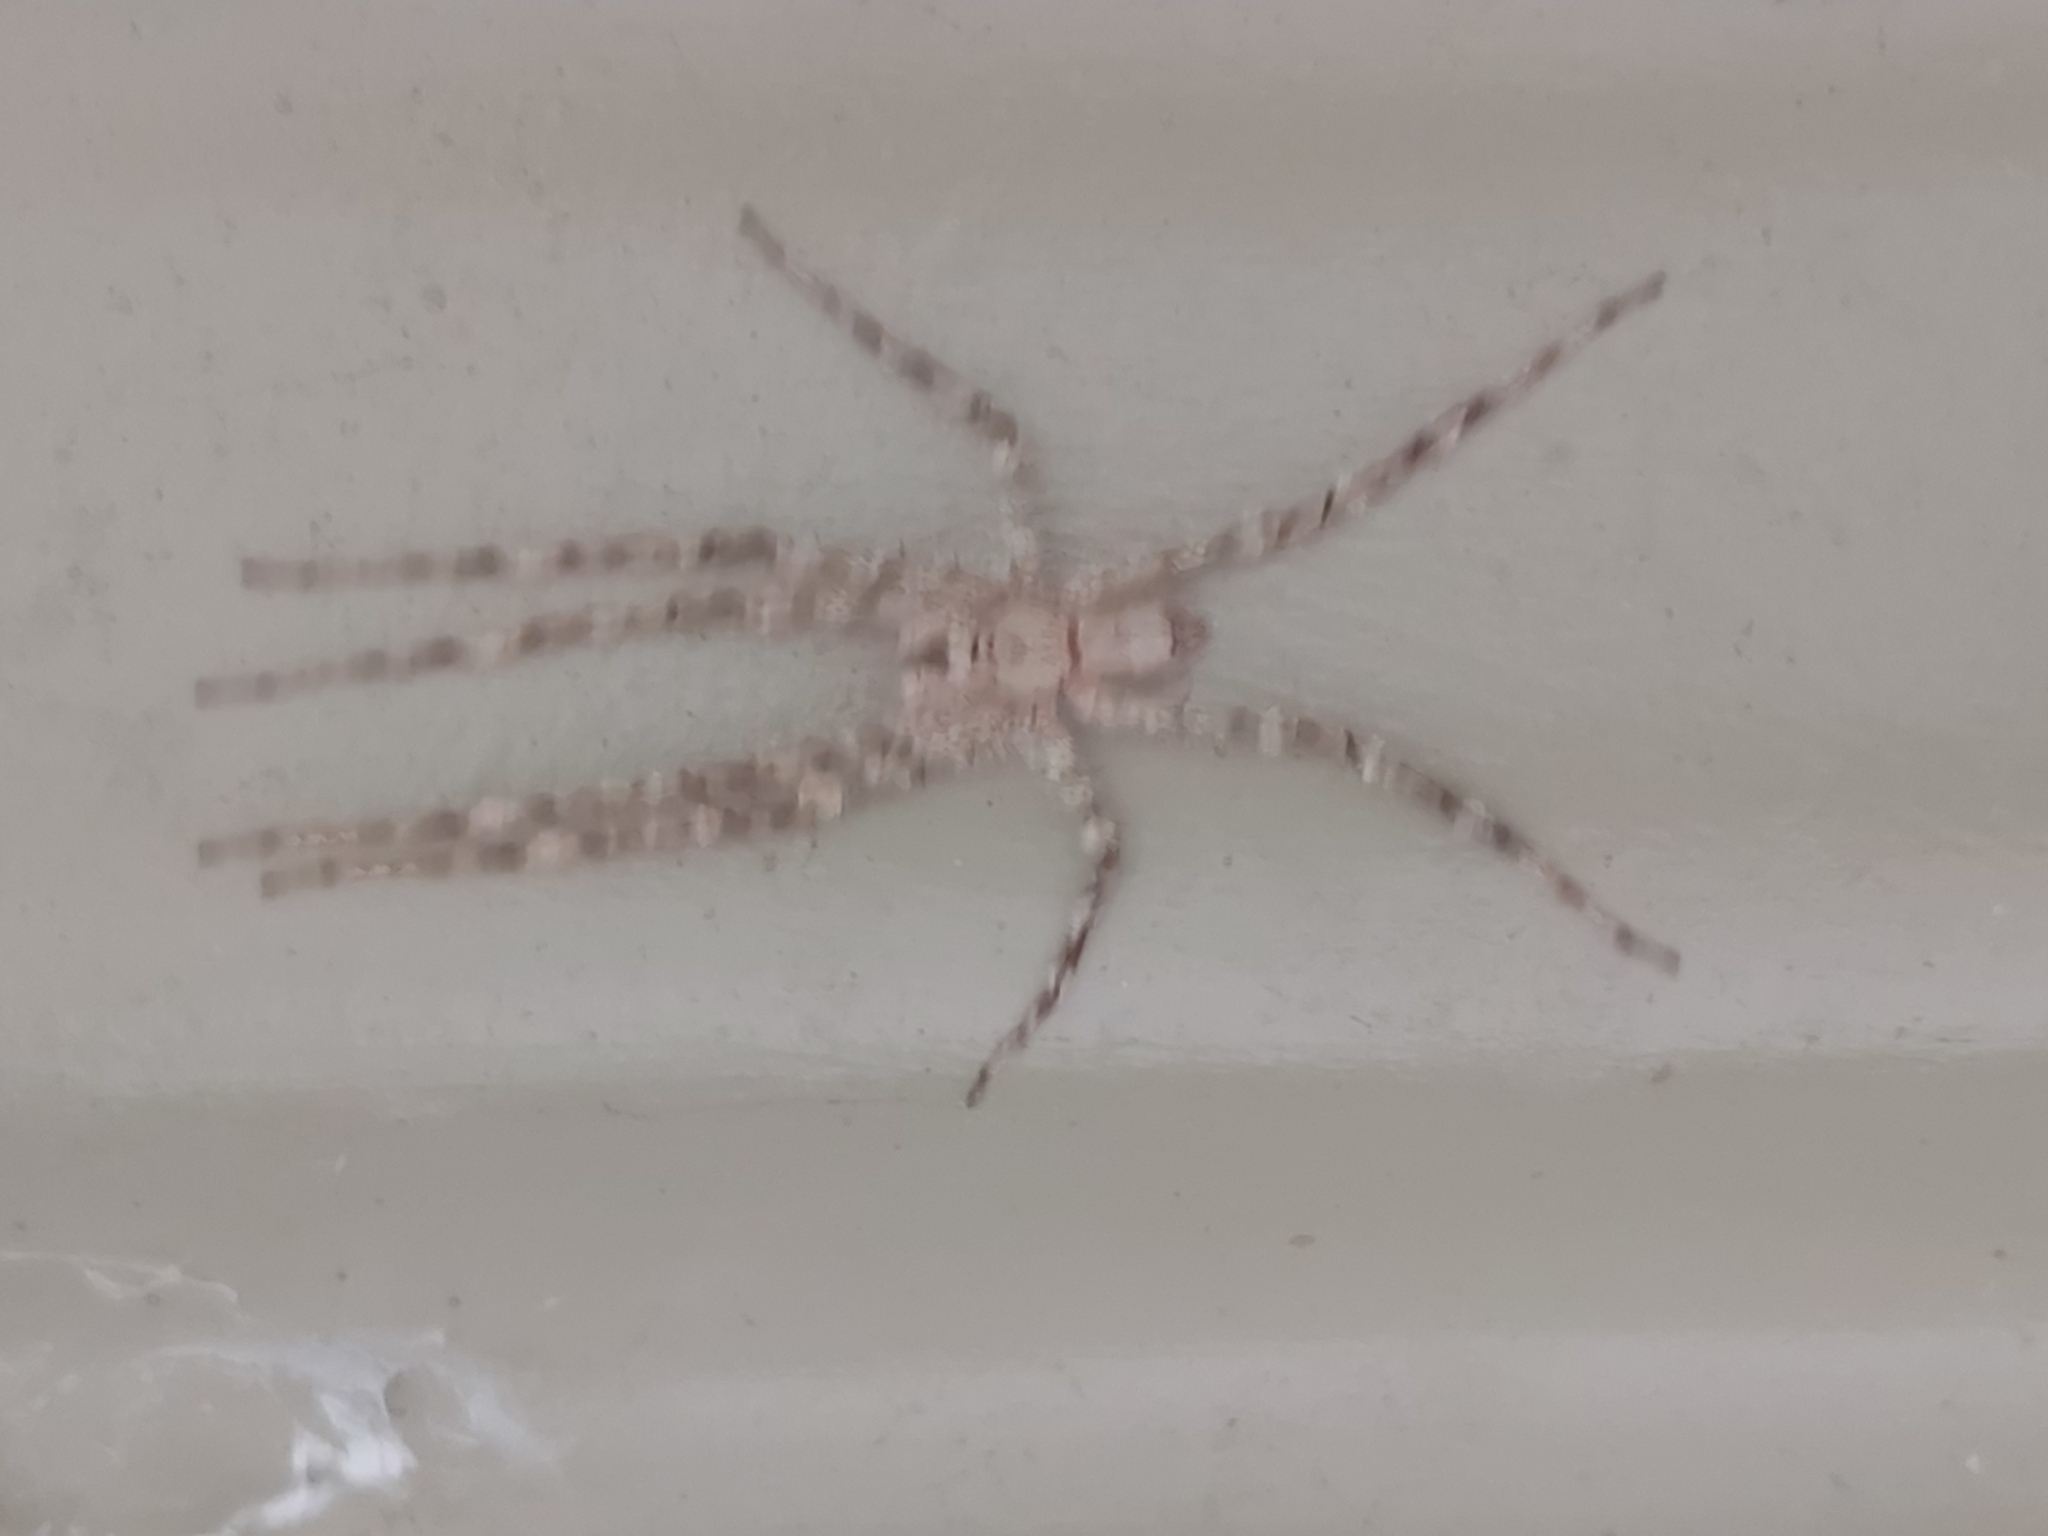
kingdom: Animalia
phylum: Arthropoda
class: Arachnida
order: Araneae
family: Sparassidae
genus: Pandercetes
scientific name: Pandercetes gracilis
